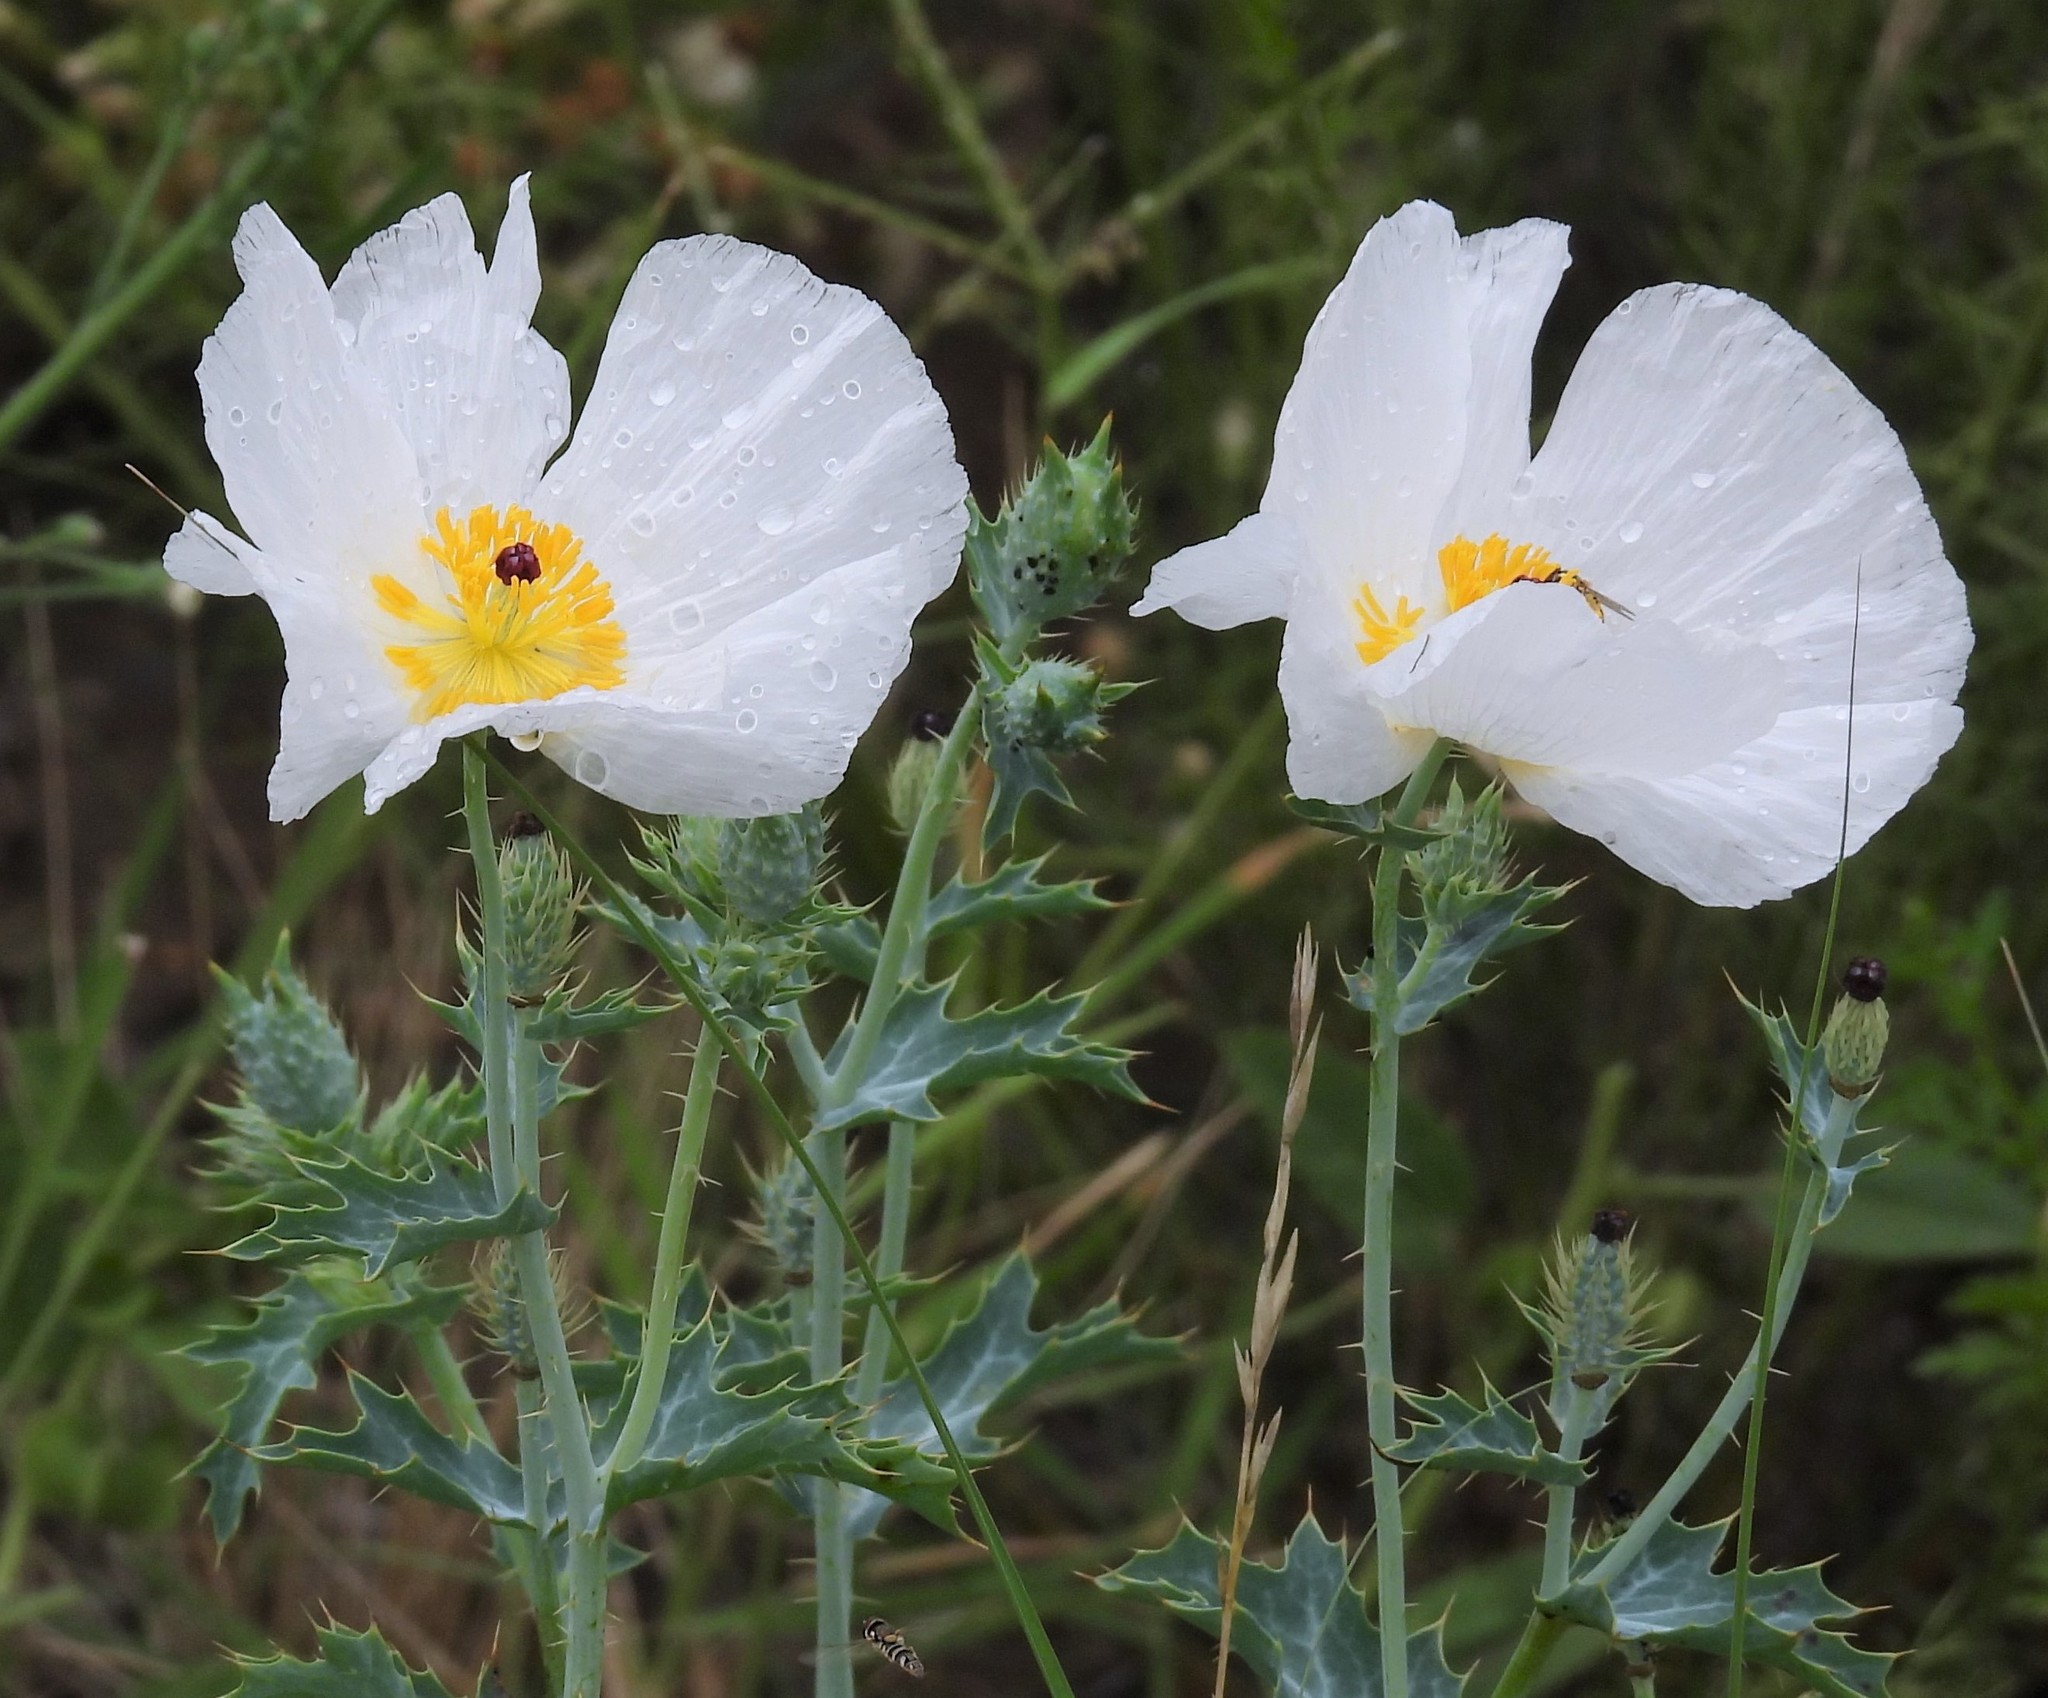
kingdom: Plantae
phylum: Tracheophyta
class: Magnoliopsida
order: Ranunculales
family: Papaveraceae
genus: Argemone
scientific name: Argemone hunnemannii
